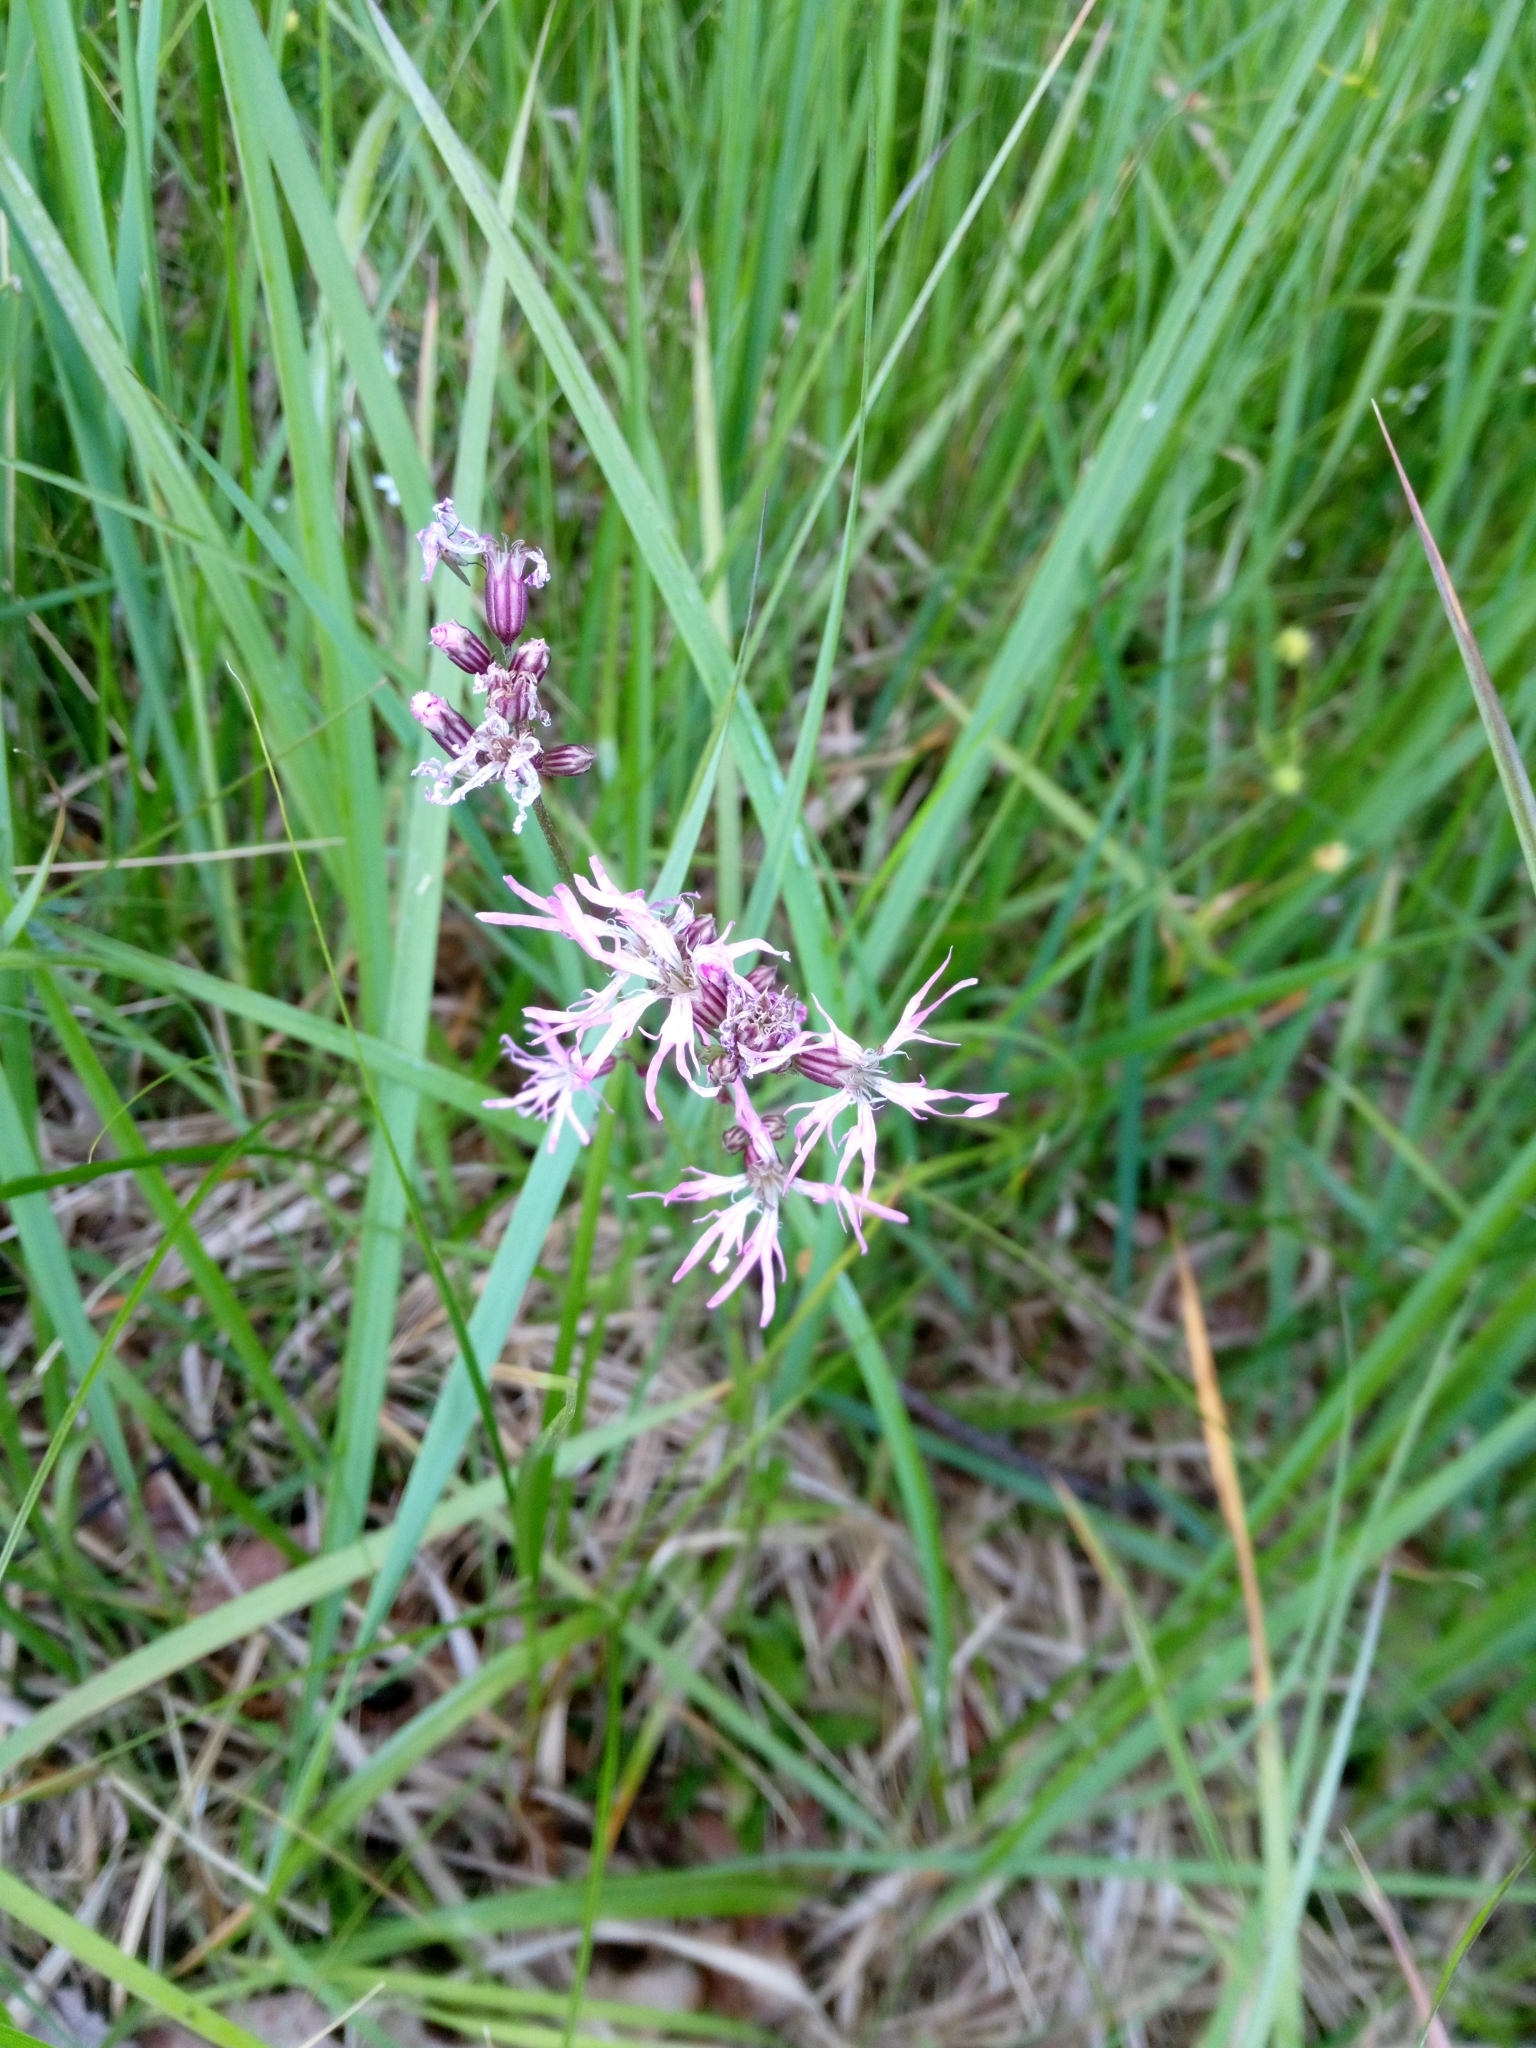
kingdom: Plantae
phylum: Tracheophyta
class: Magnoliopsida
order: Caryophyllales
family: Caryophyllaceae
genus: Silene
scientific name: Silene flos-cuculi
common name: Ragged-robin
